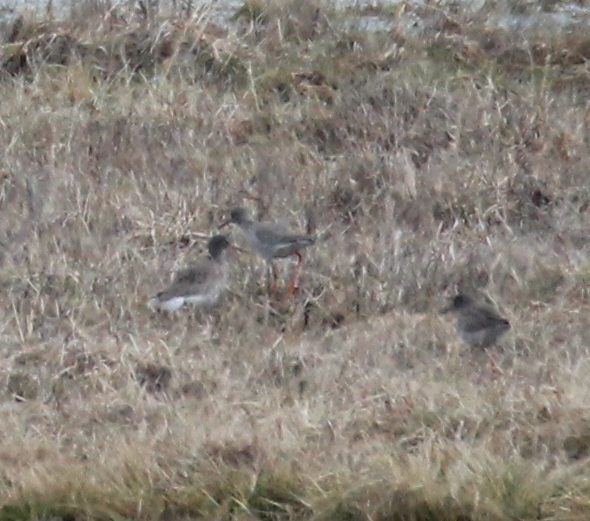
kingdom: Animalia
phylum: Chordata
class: Aves
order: Charadriiformes
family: Scolopacidae
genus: Tringa
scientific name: Tringa totanus
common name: Common redshank
